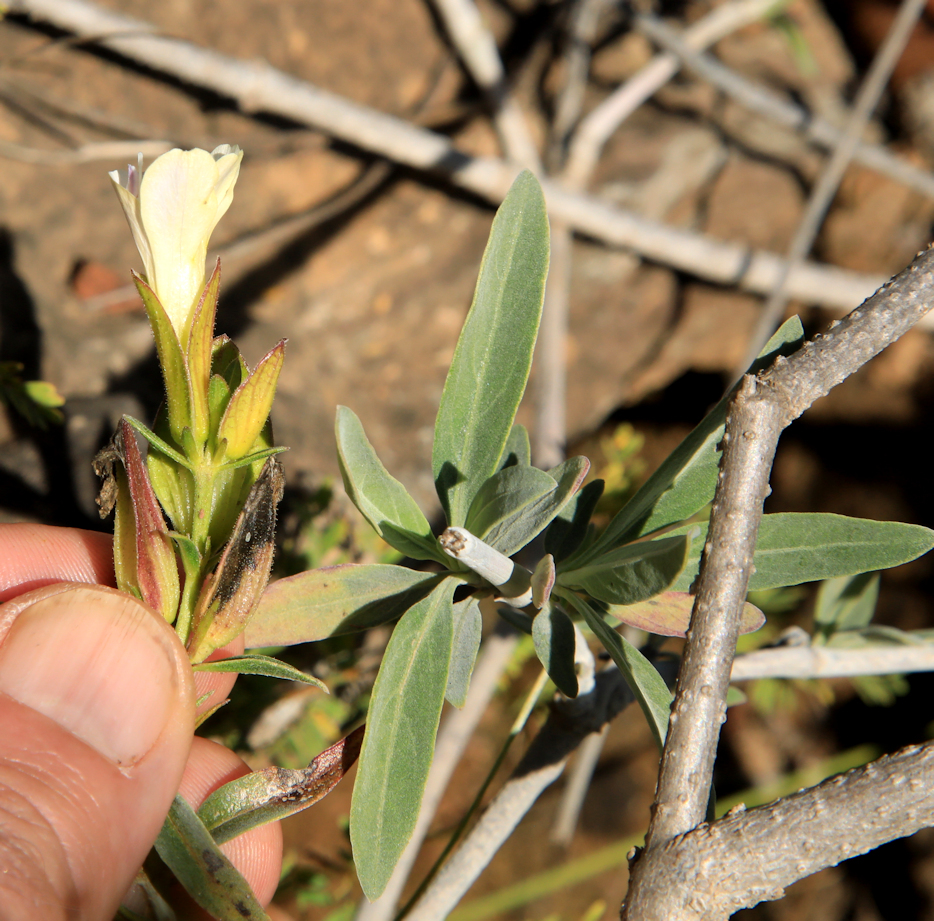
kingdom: Plantae
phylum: Tracheophyta
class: Magnoliopsida
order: Lamiales
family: Acanthaceae
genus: Barleria
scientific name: Barleria lancifolia
